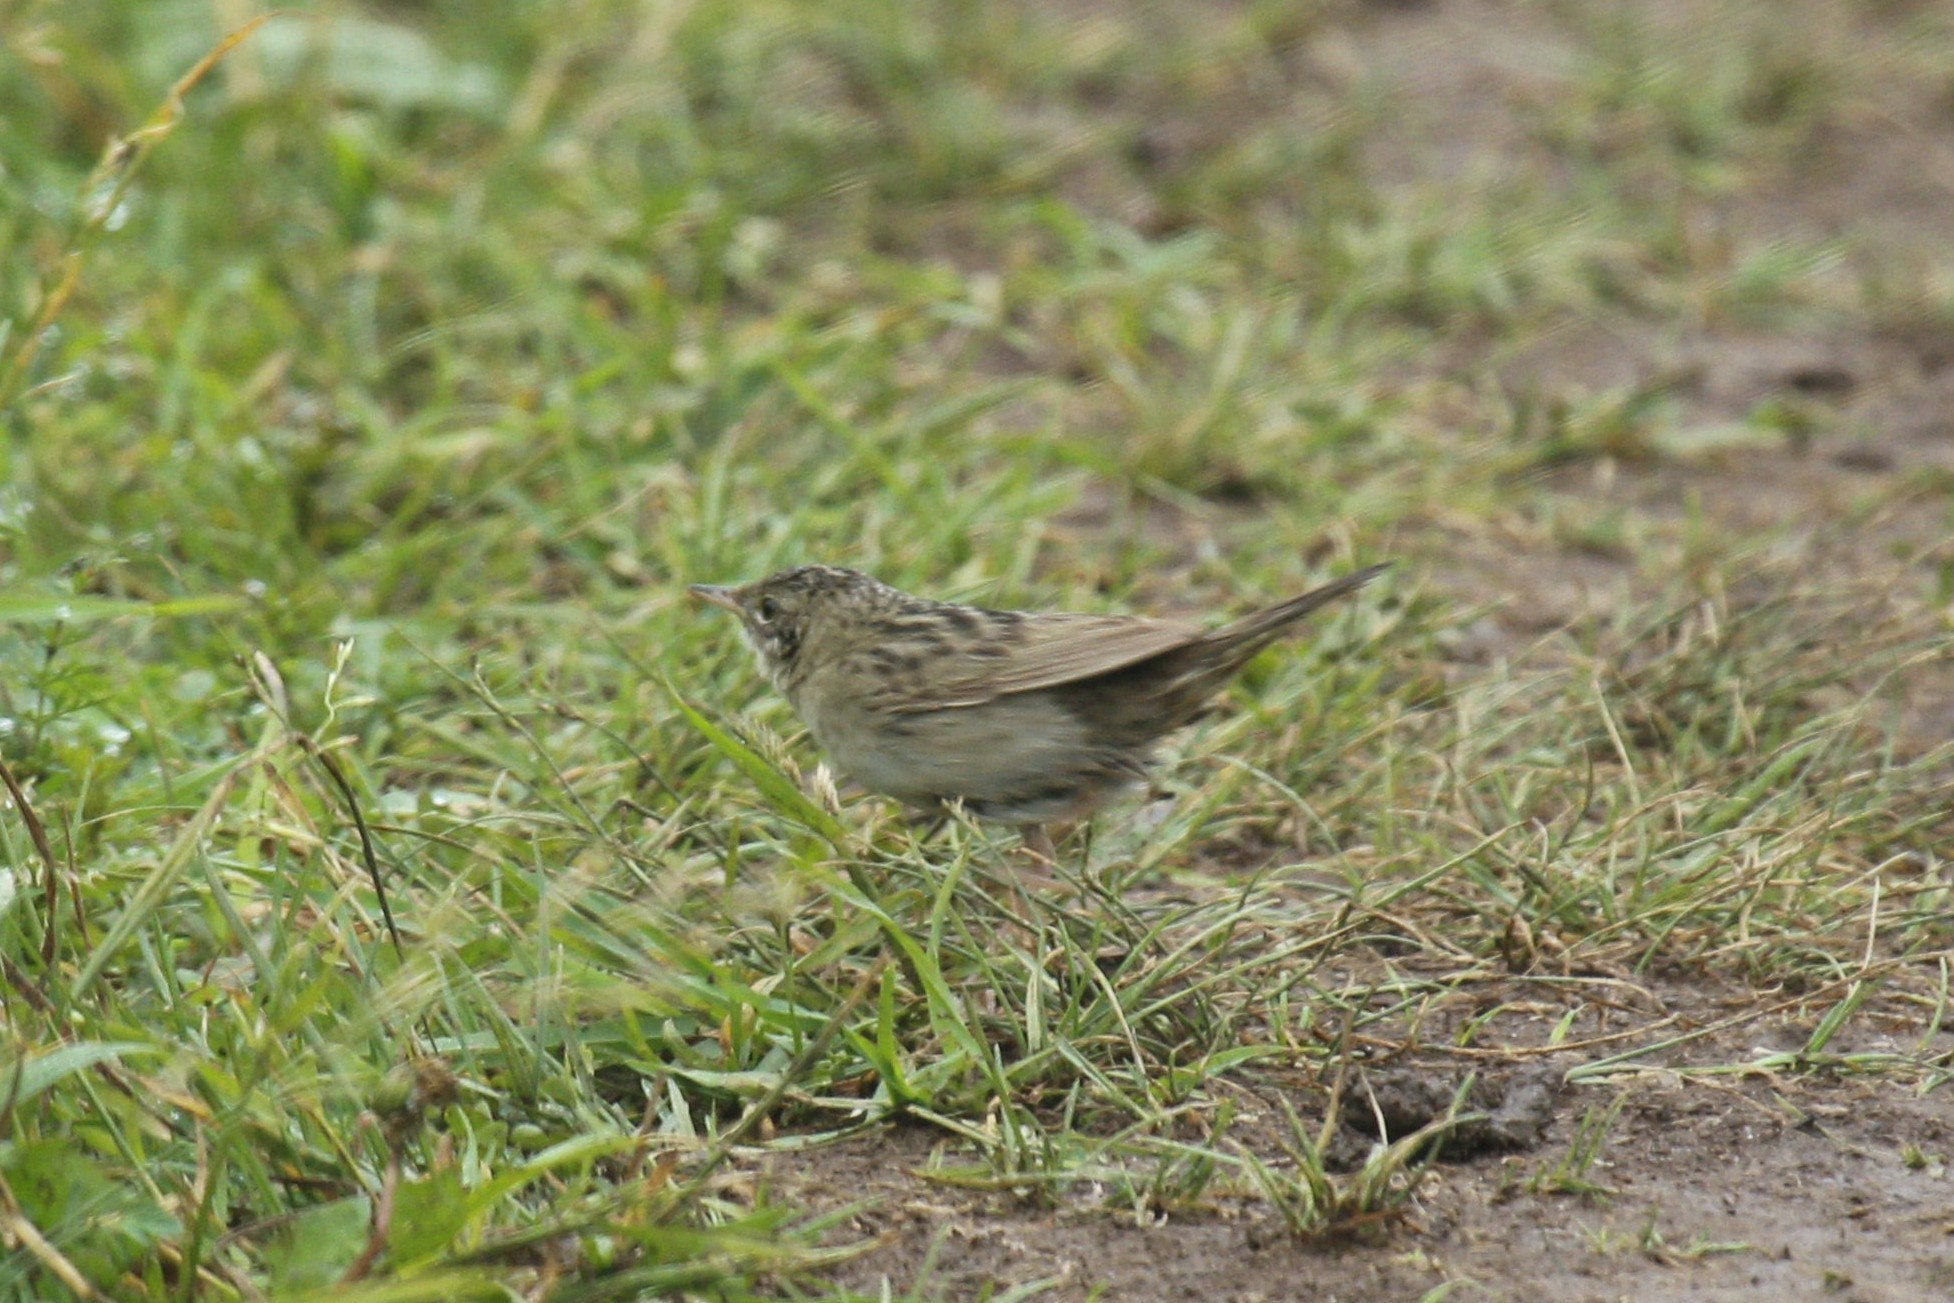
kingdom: Animalia
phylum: Chordata
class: Aves
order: Passeriformes
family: Locustellidae
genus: Locustella
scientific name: Locustella naevia
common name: Common grasshopper warbler
